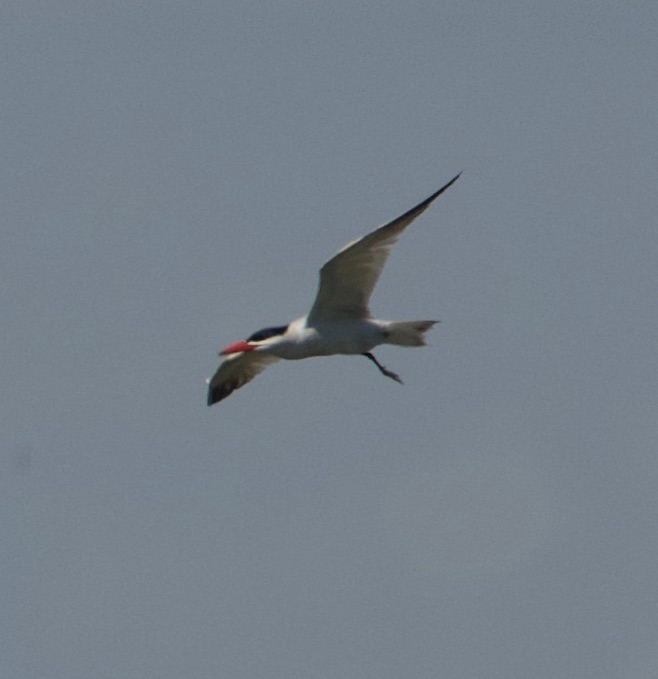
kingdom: Animalia
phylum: Chordata
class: Aves
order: Charadriiformes
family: Laridae
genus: Hydroprogne
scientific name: Hydroprogne caspia
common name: Caspian tern
